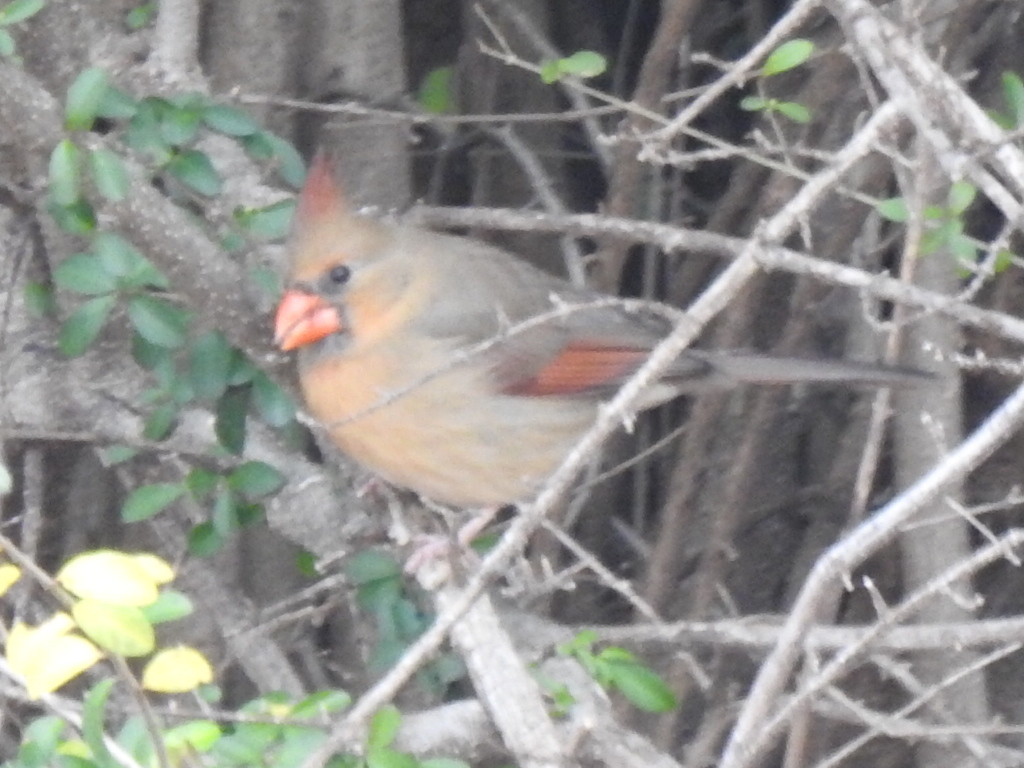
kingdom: Animalia
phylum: Chordata
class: Aves
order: Passeriformes
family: Cardinalidae
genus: Cardinalis
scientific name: Cardinalis cardinalis
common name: Northern cardinal
